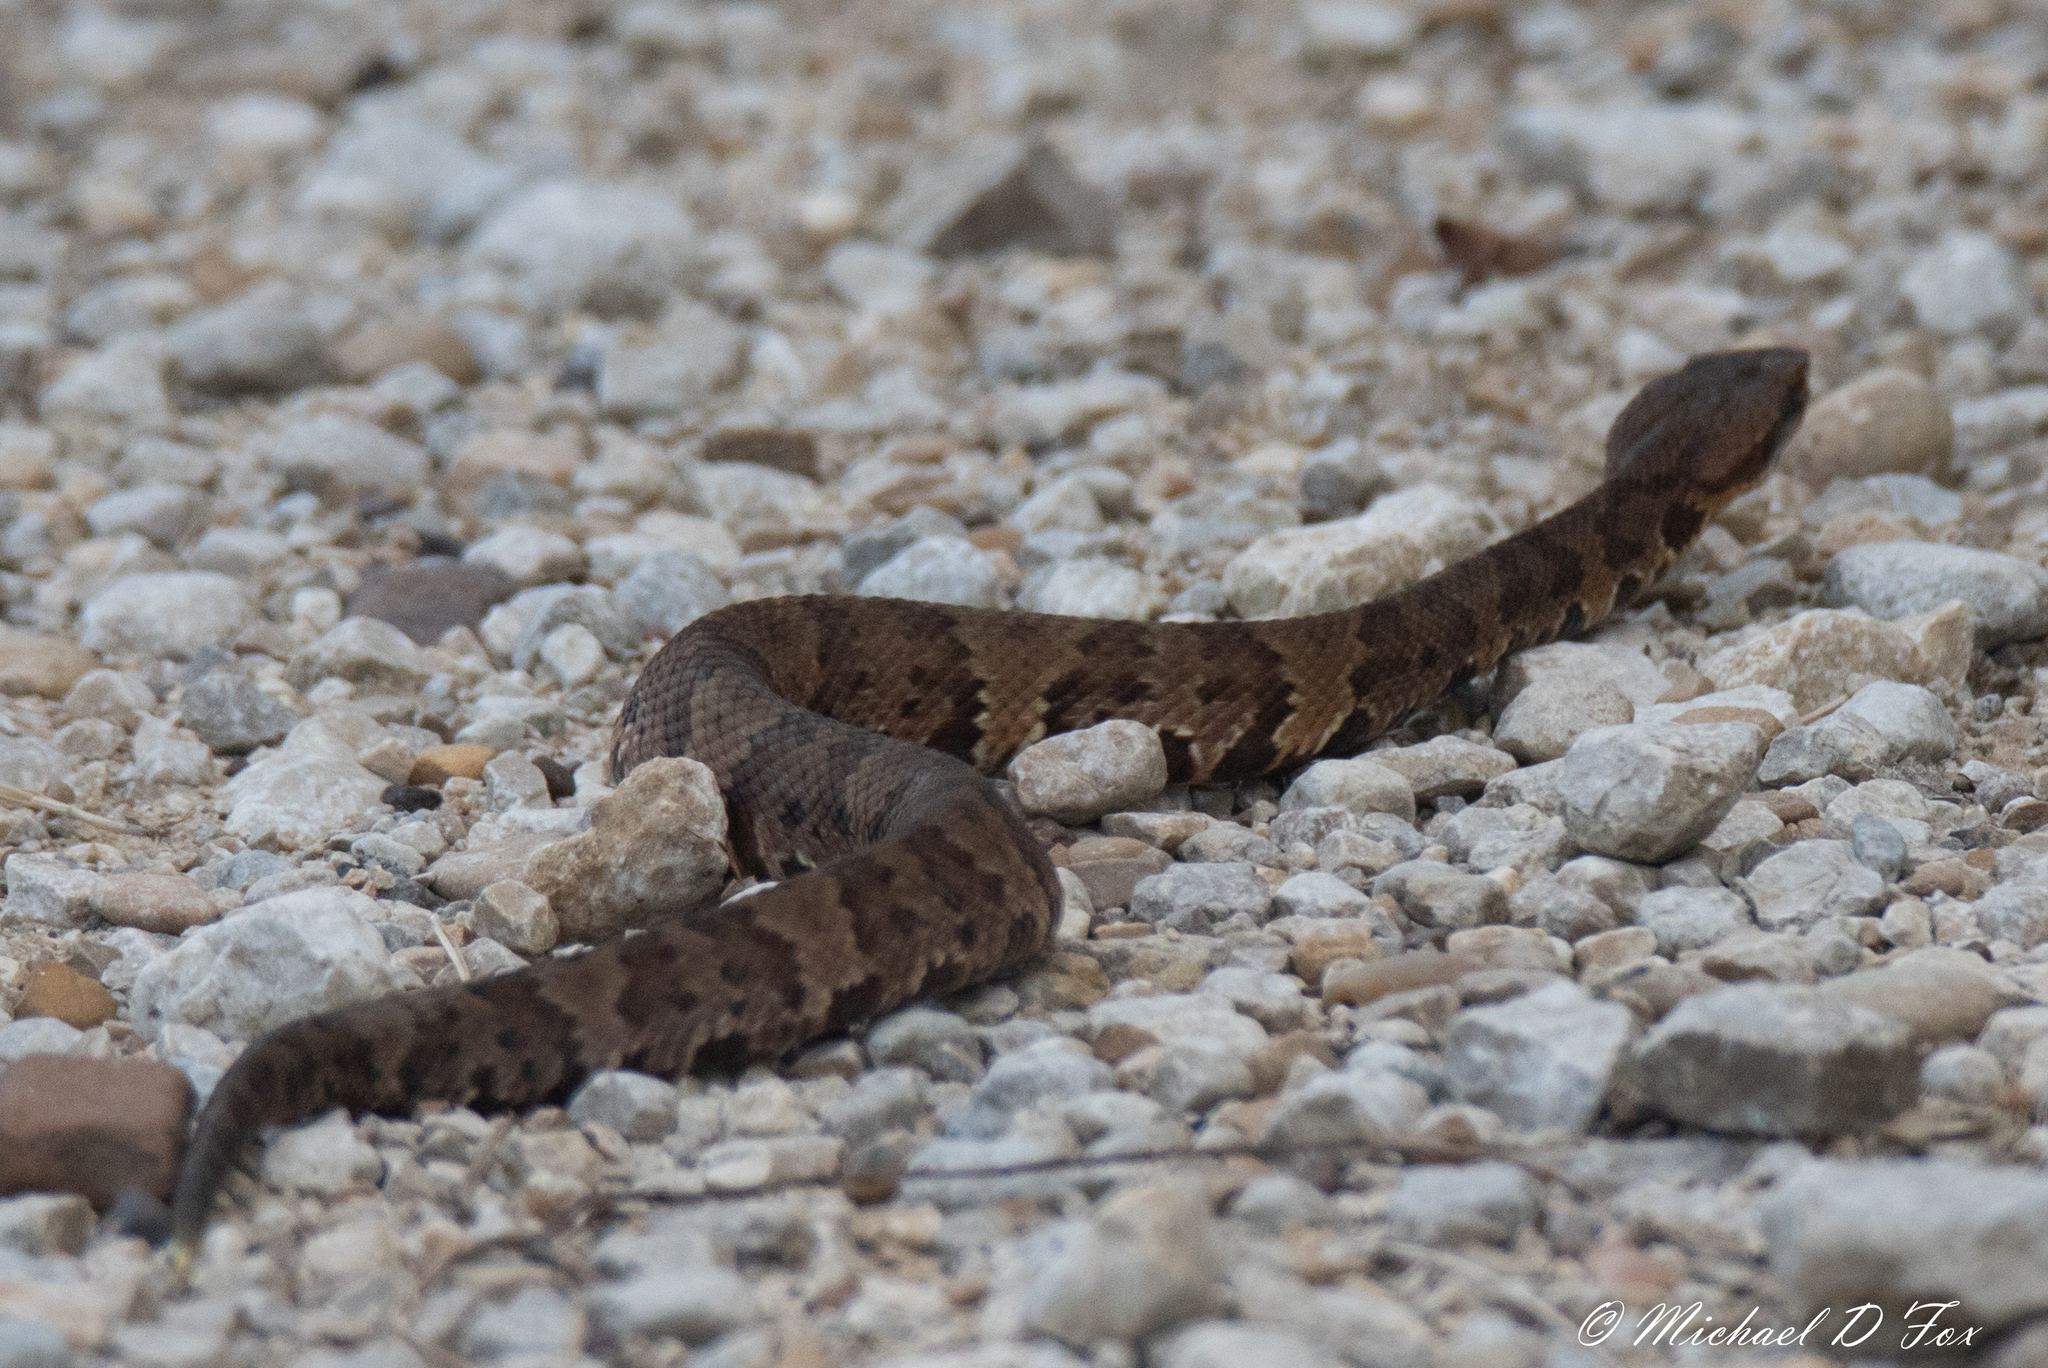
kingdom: Animalia
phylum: Chordata
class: Squamata
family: Viperidae
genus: Agkistrodon
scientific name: Agkistrodon piscivorus
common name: Cottonmouth
